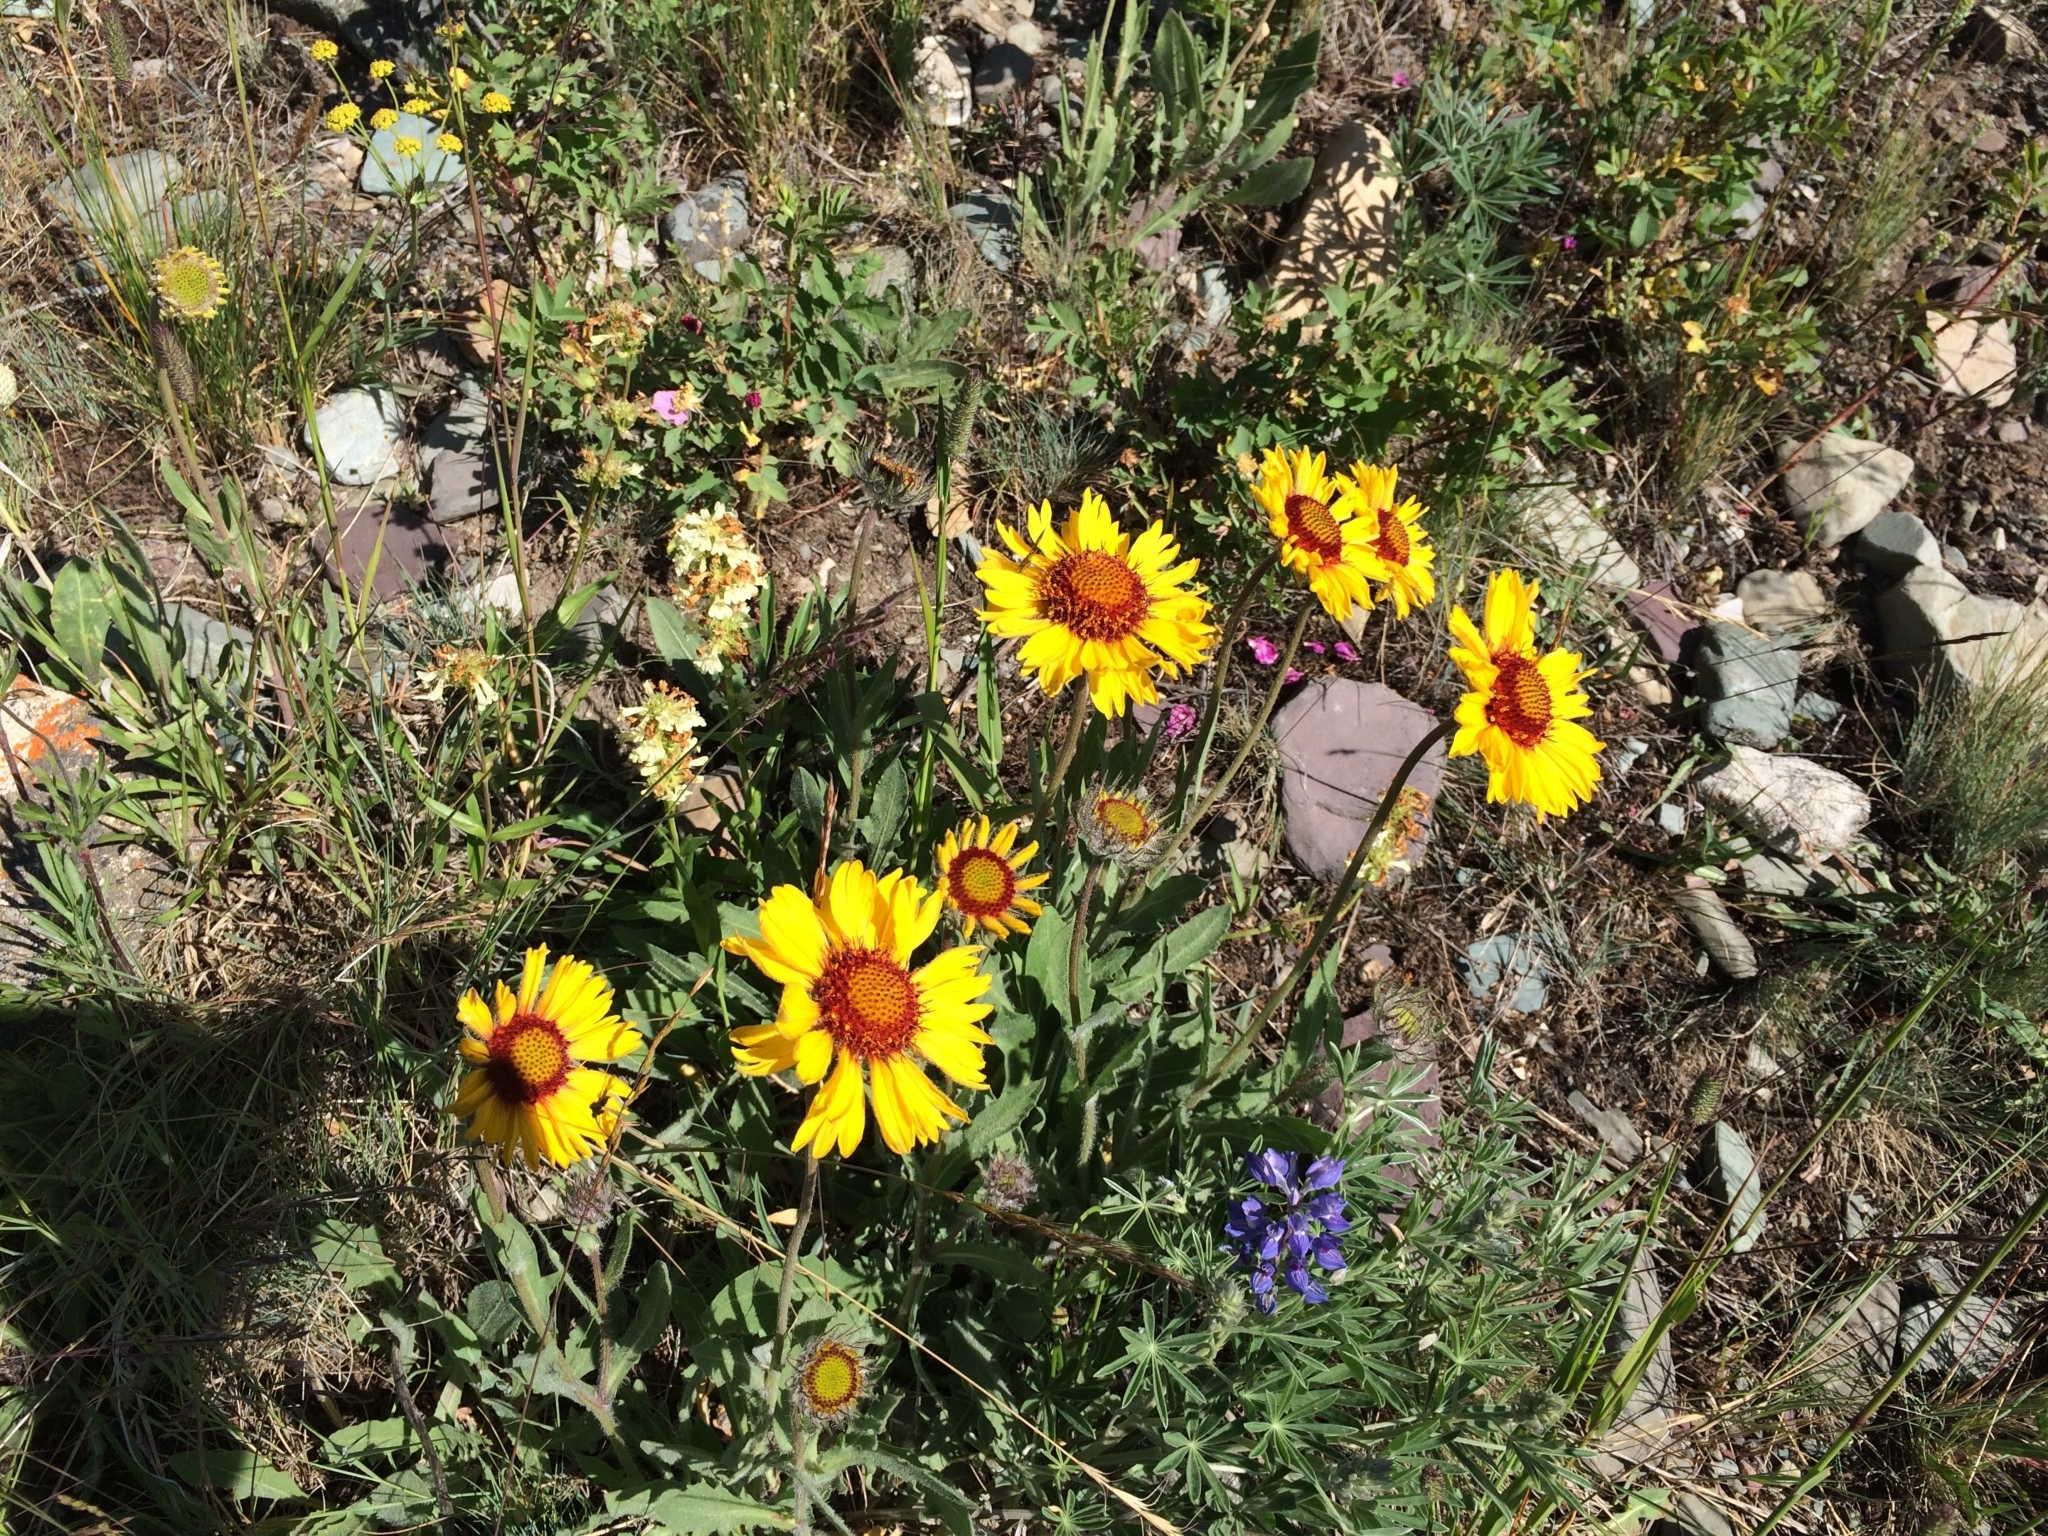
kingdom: Plantae
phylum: Tracheophyta
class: Magnoliopsida
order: Asterales
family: Asteraceae
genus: Gaillardia
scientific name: Gaillardia aristata
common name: Blanket-flower
